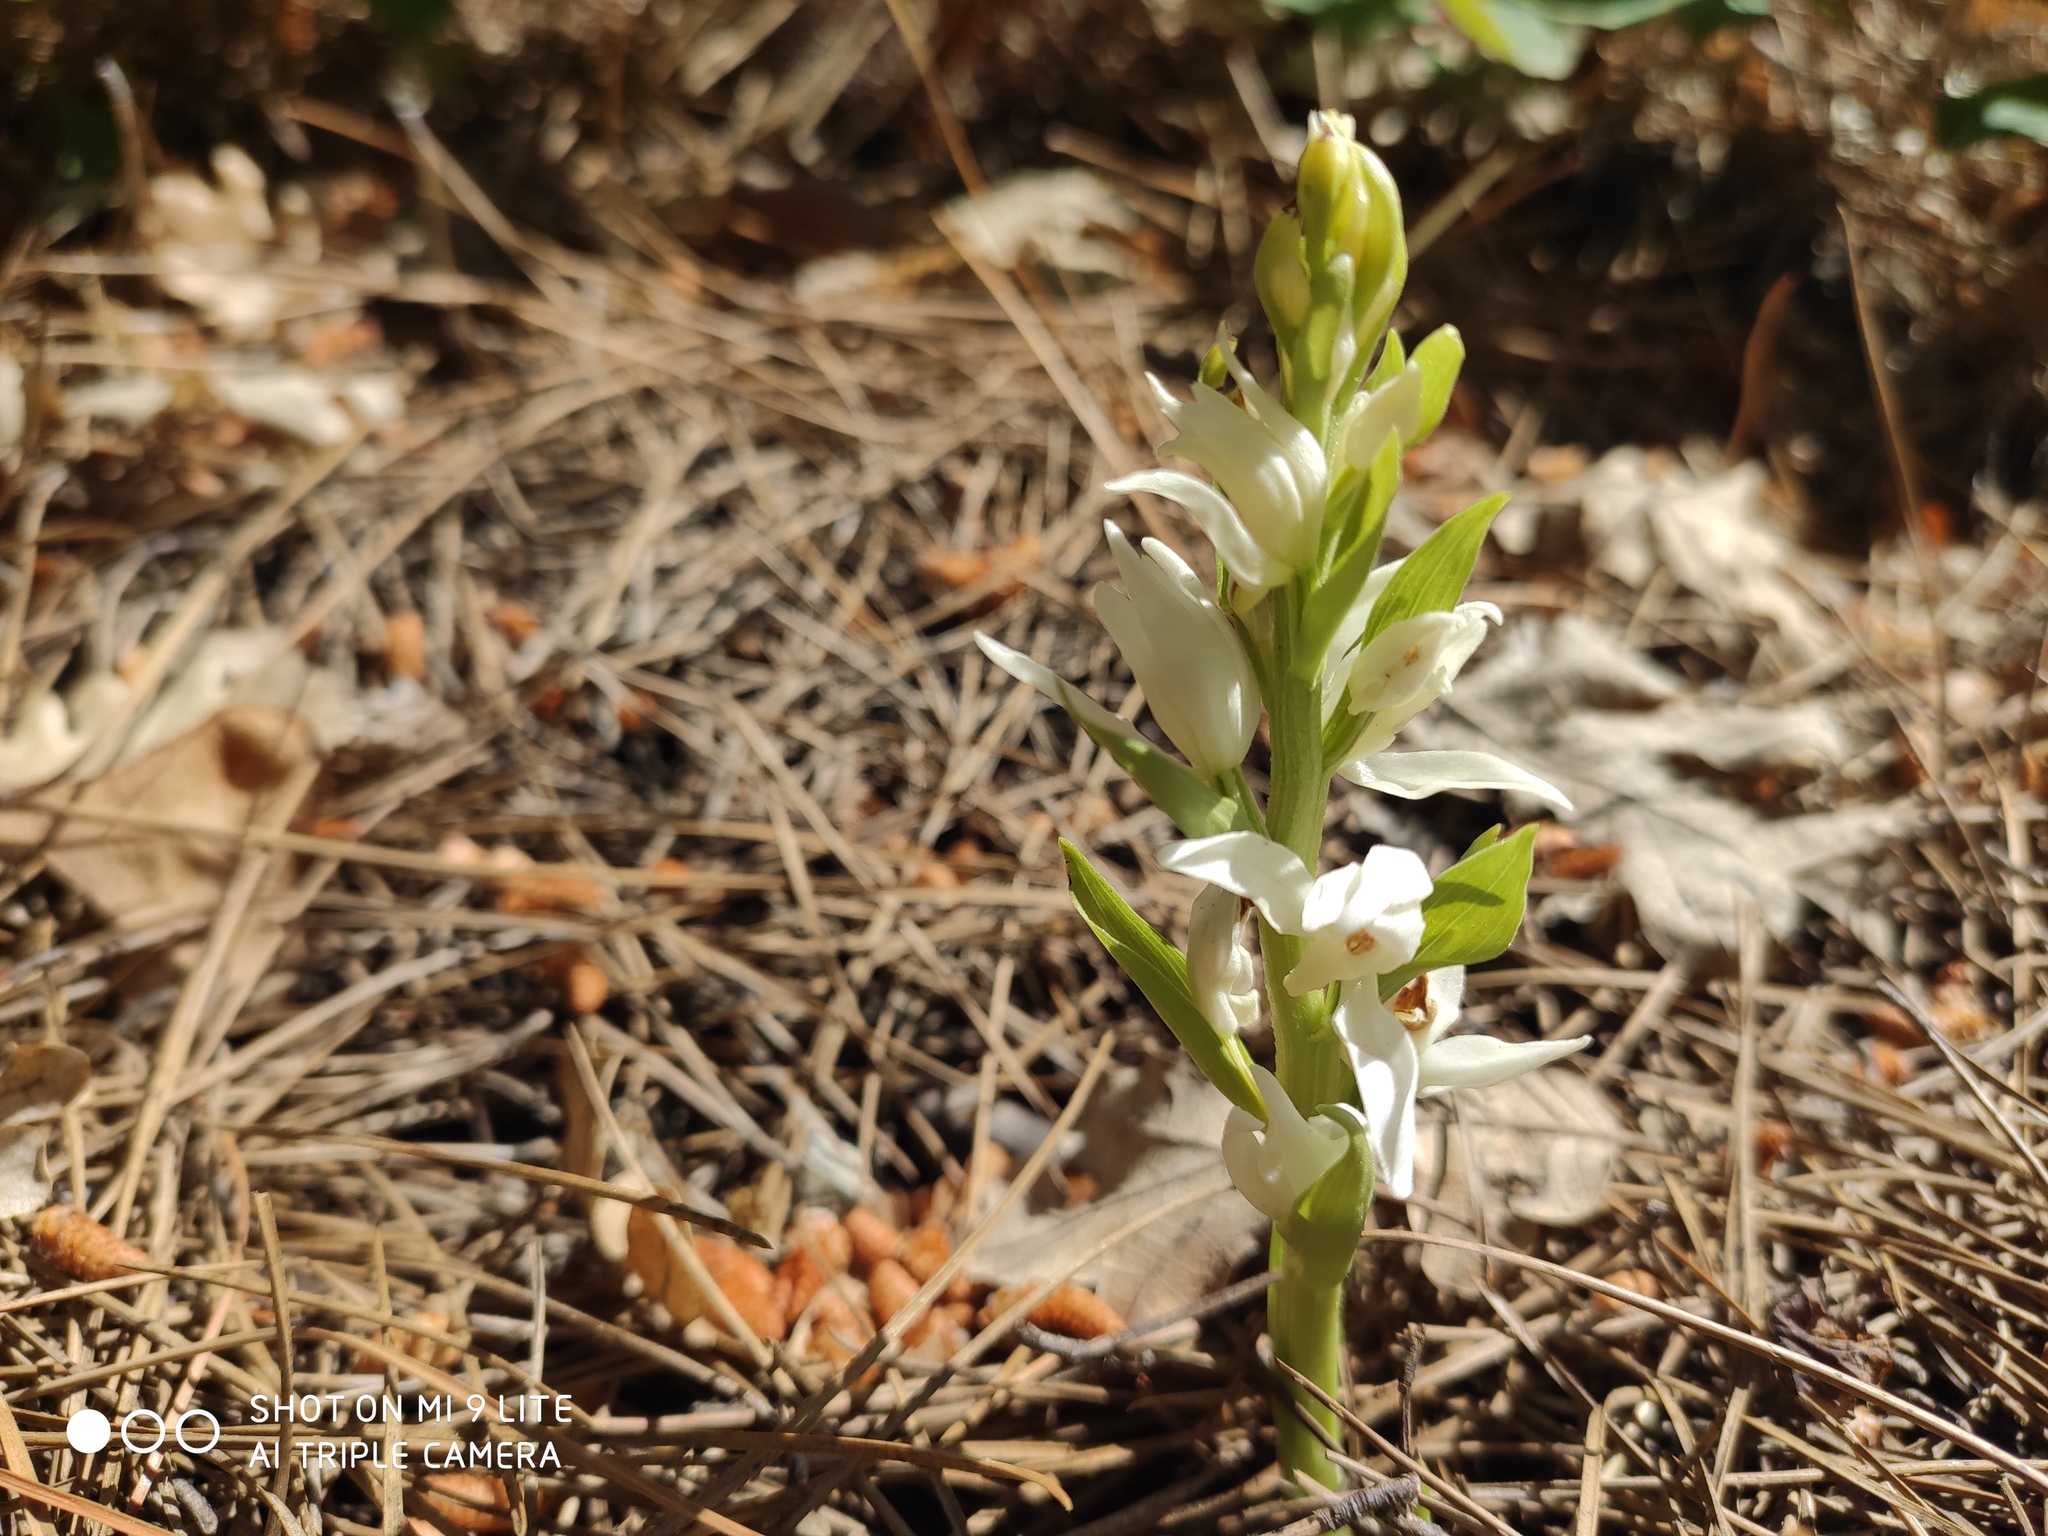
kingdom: Plantae
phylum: Tracheophyta
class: Liliopsida
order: Asparagales
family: Orchidaceae
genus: Cephalanthera
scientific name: Cephalanthera epipactoides
